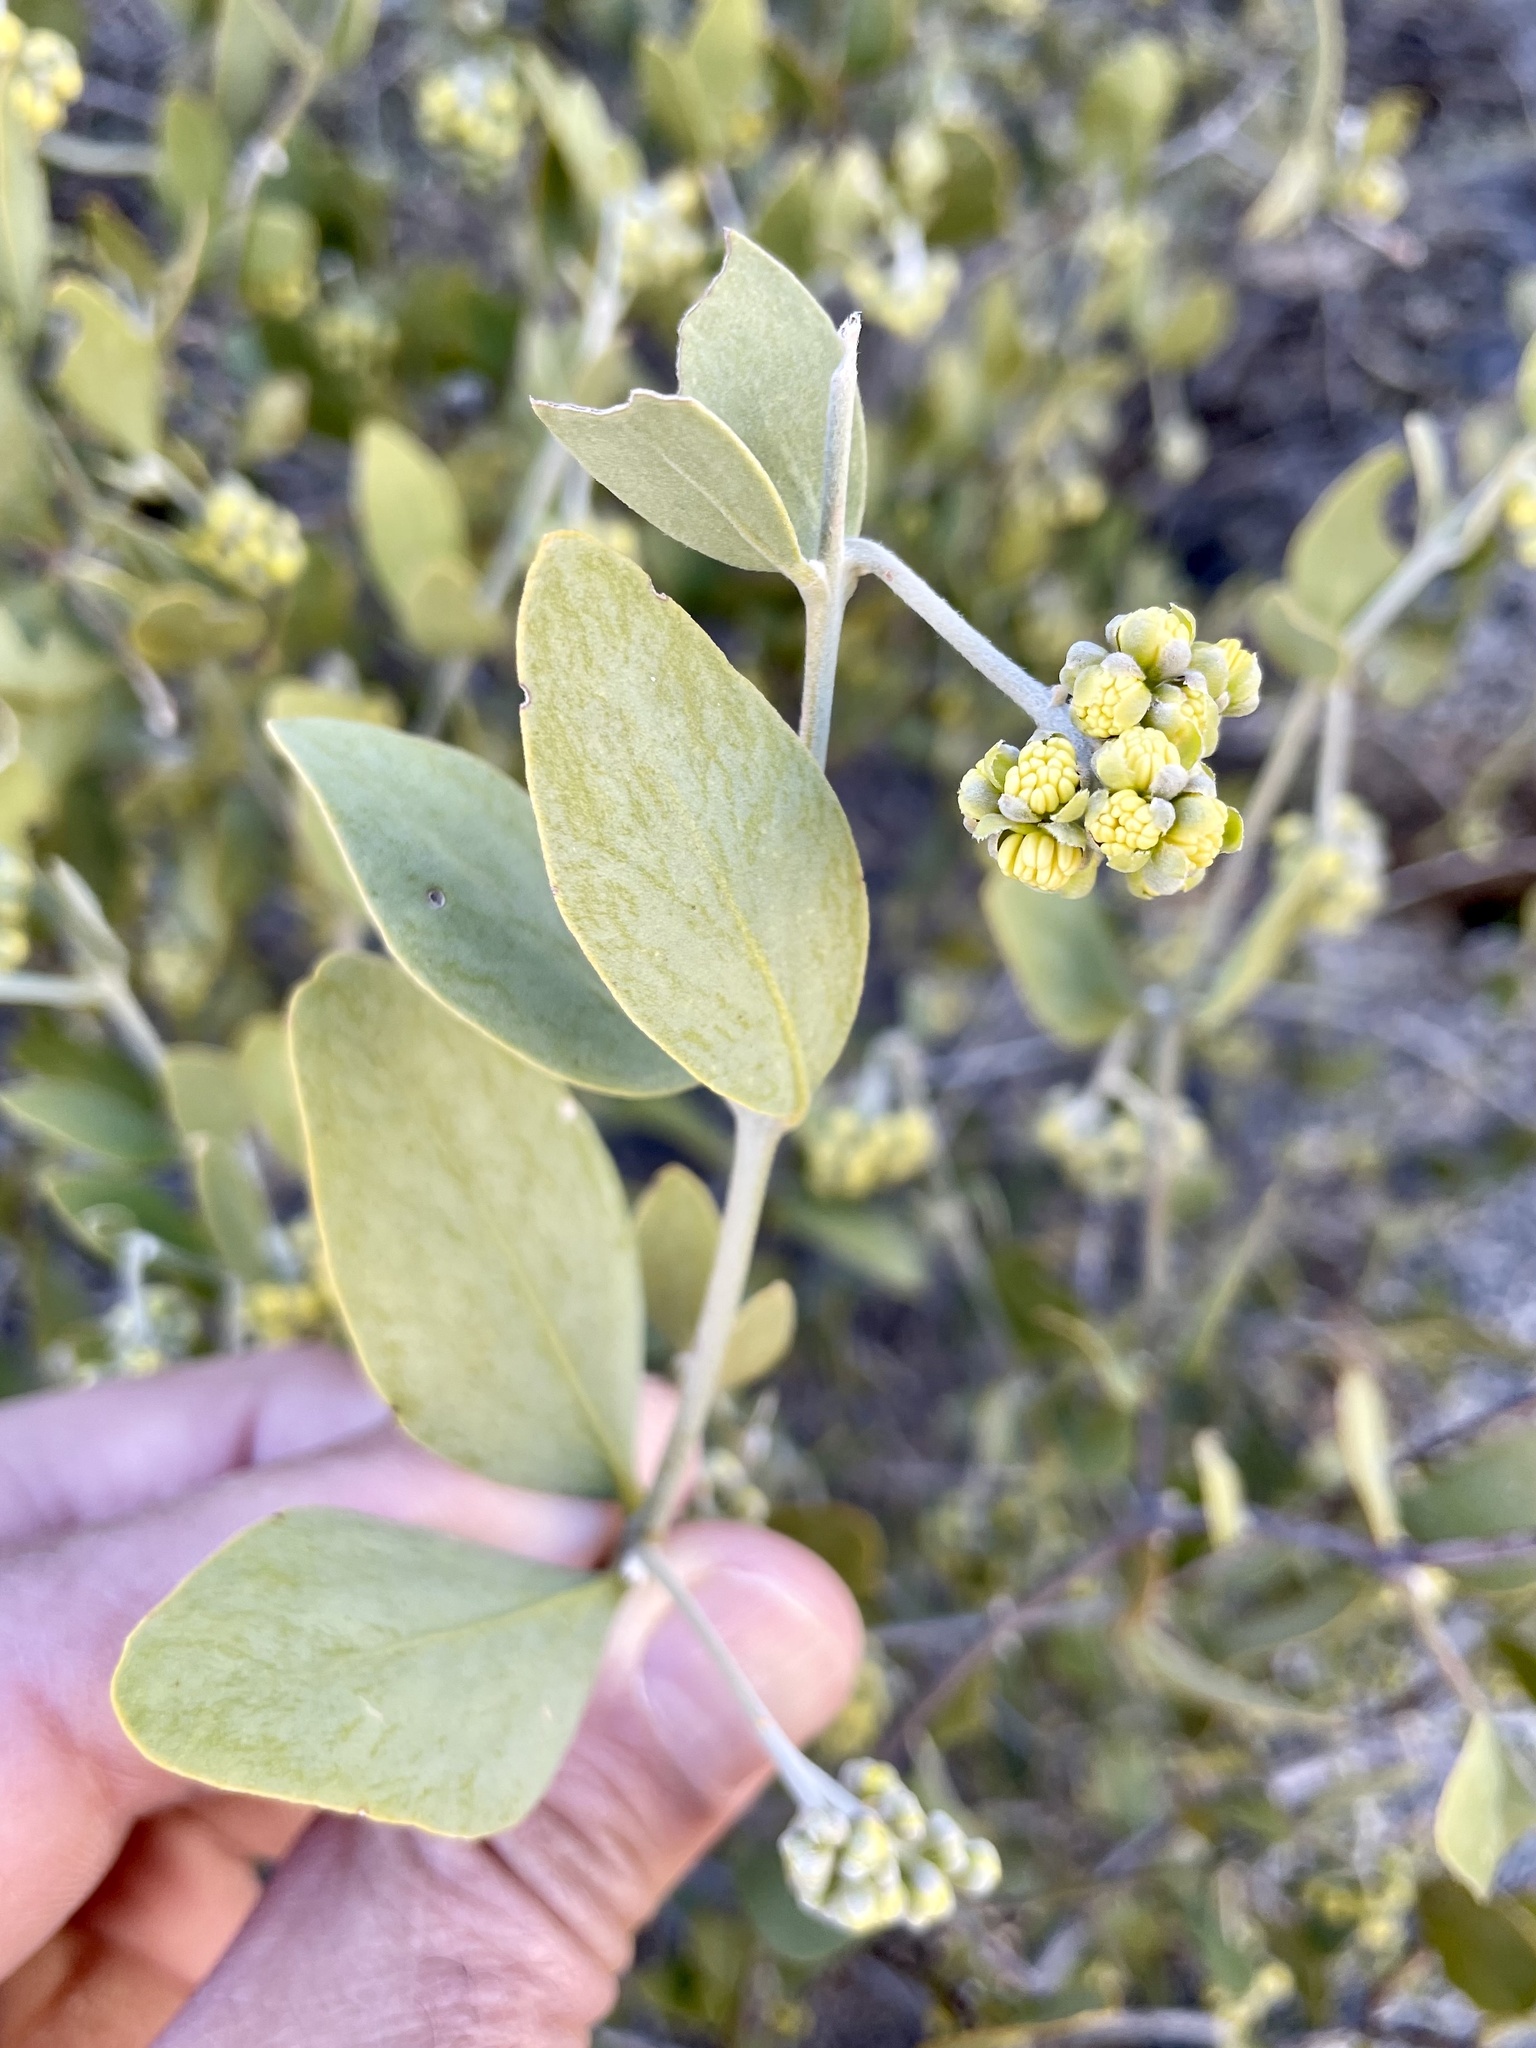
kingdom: Plantae
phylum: Tracheophyta
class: Magnoliopsida
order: Caryophyllales
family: Simmondsiaceae
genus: Simmondsia
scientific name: Simmondsia chinensis
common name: Jojoba
